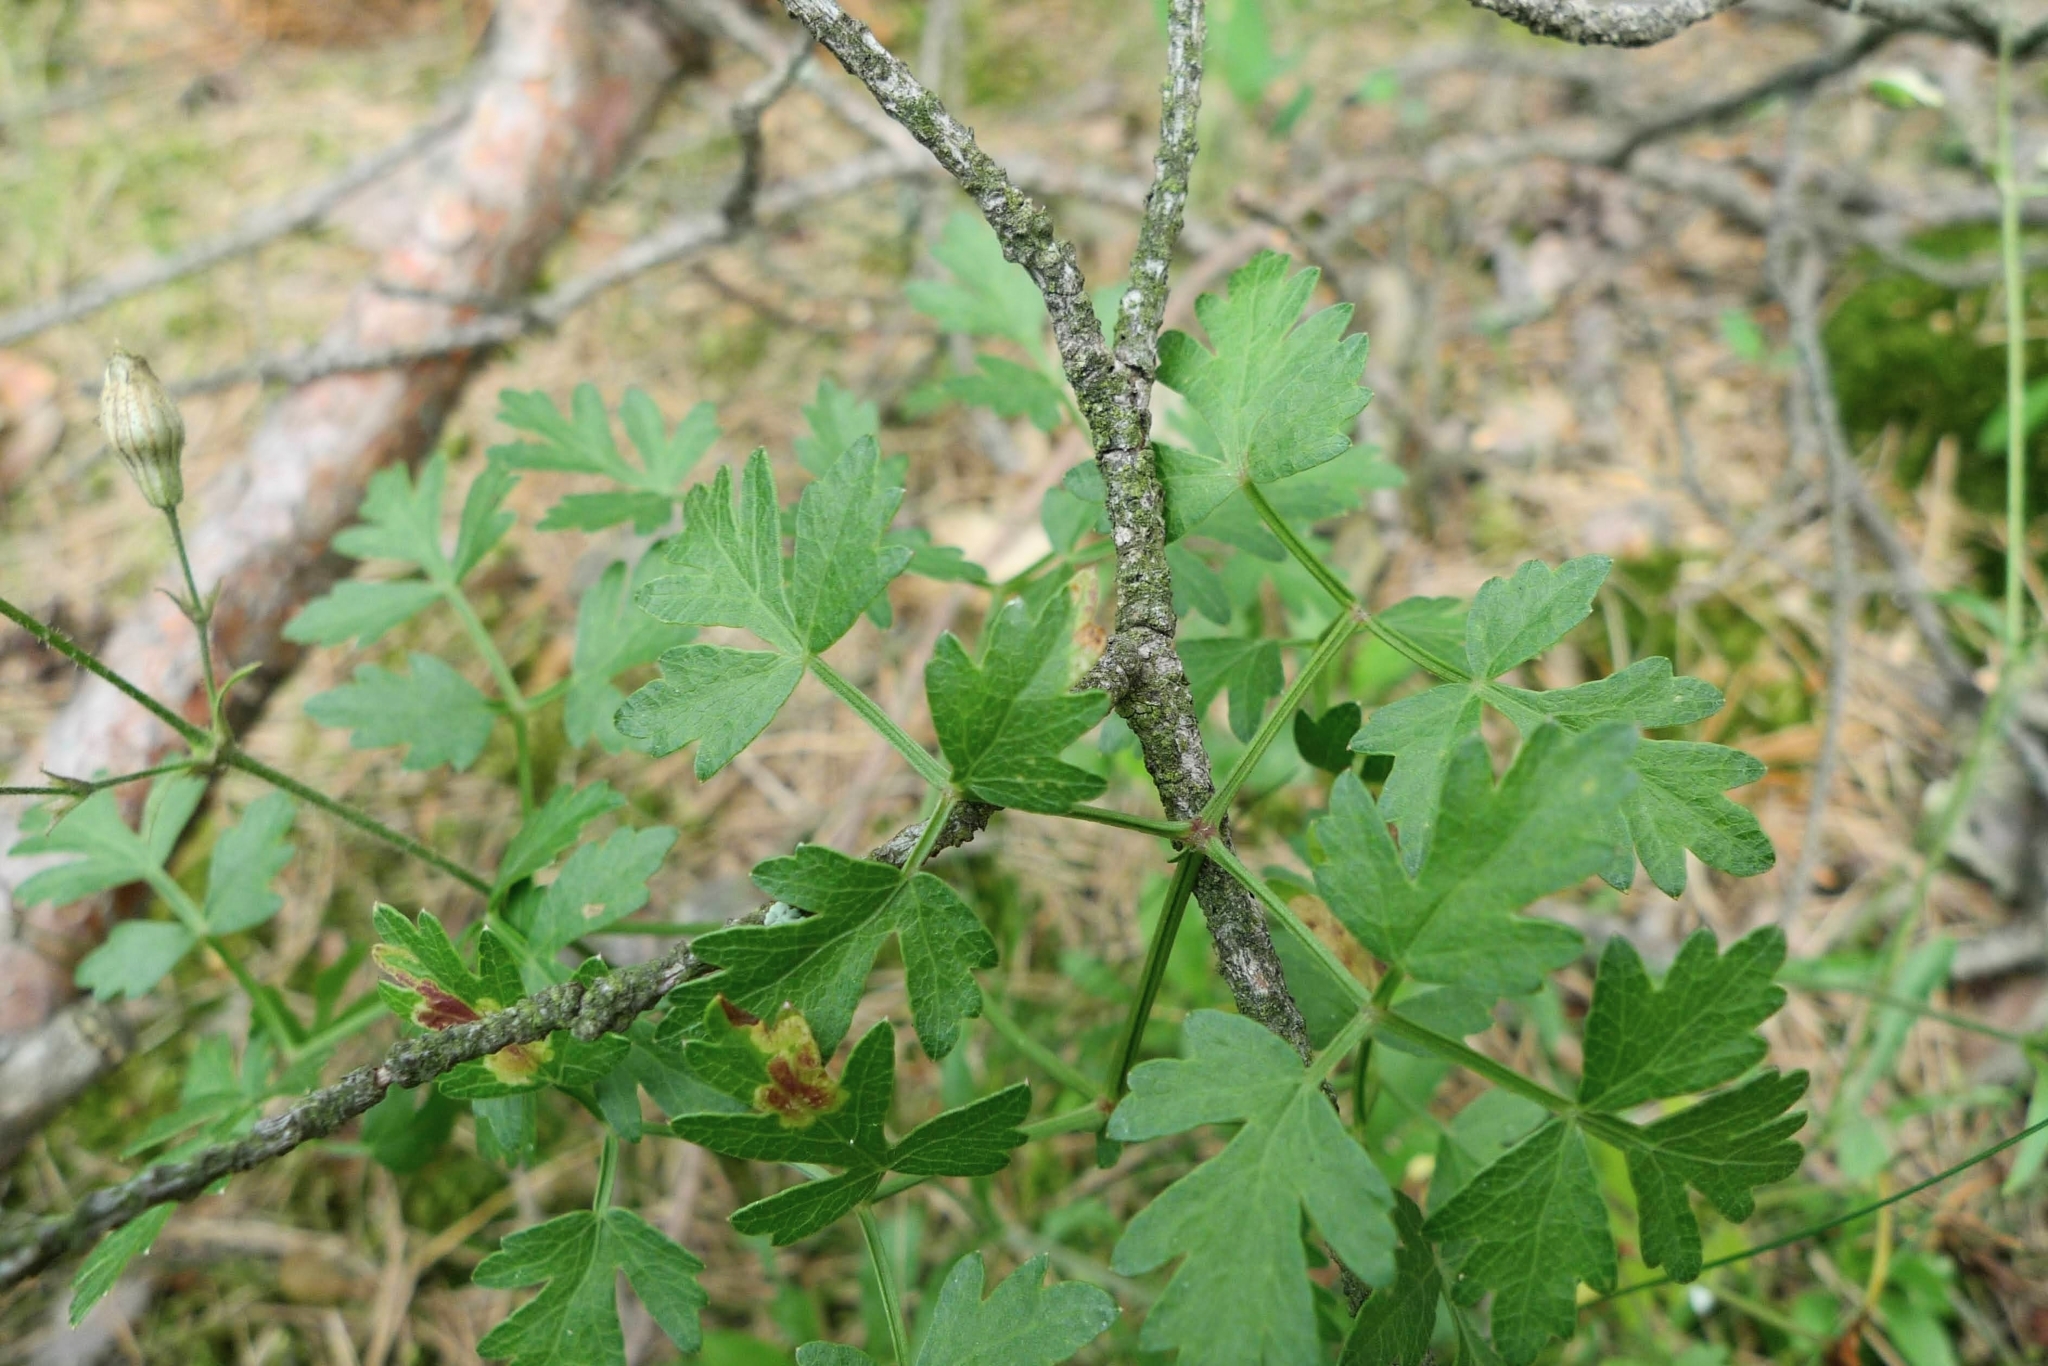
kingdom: Plantae
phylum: Tracheophyta
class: Magnoliopsida
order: Apiales
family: Apiaceae
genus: Oreoselinum
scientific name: Oreoselinum nigrum
